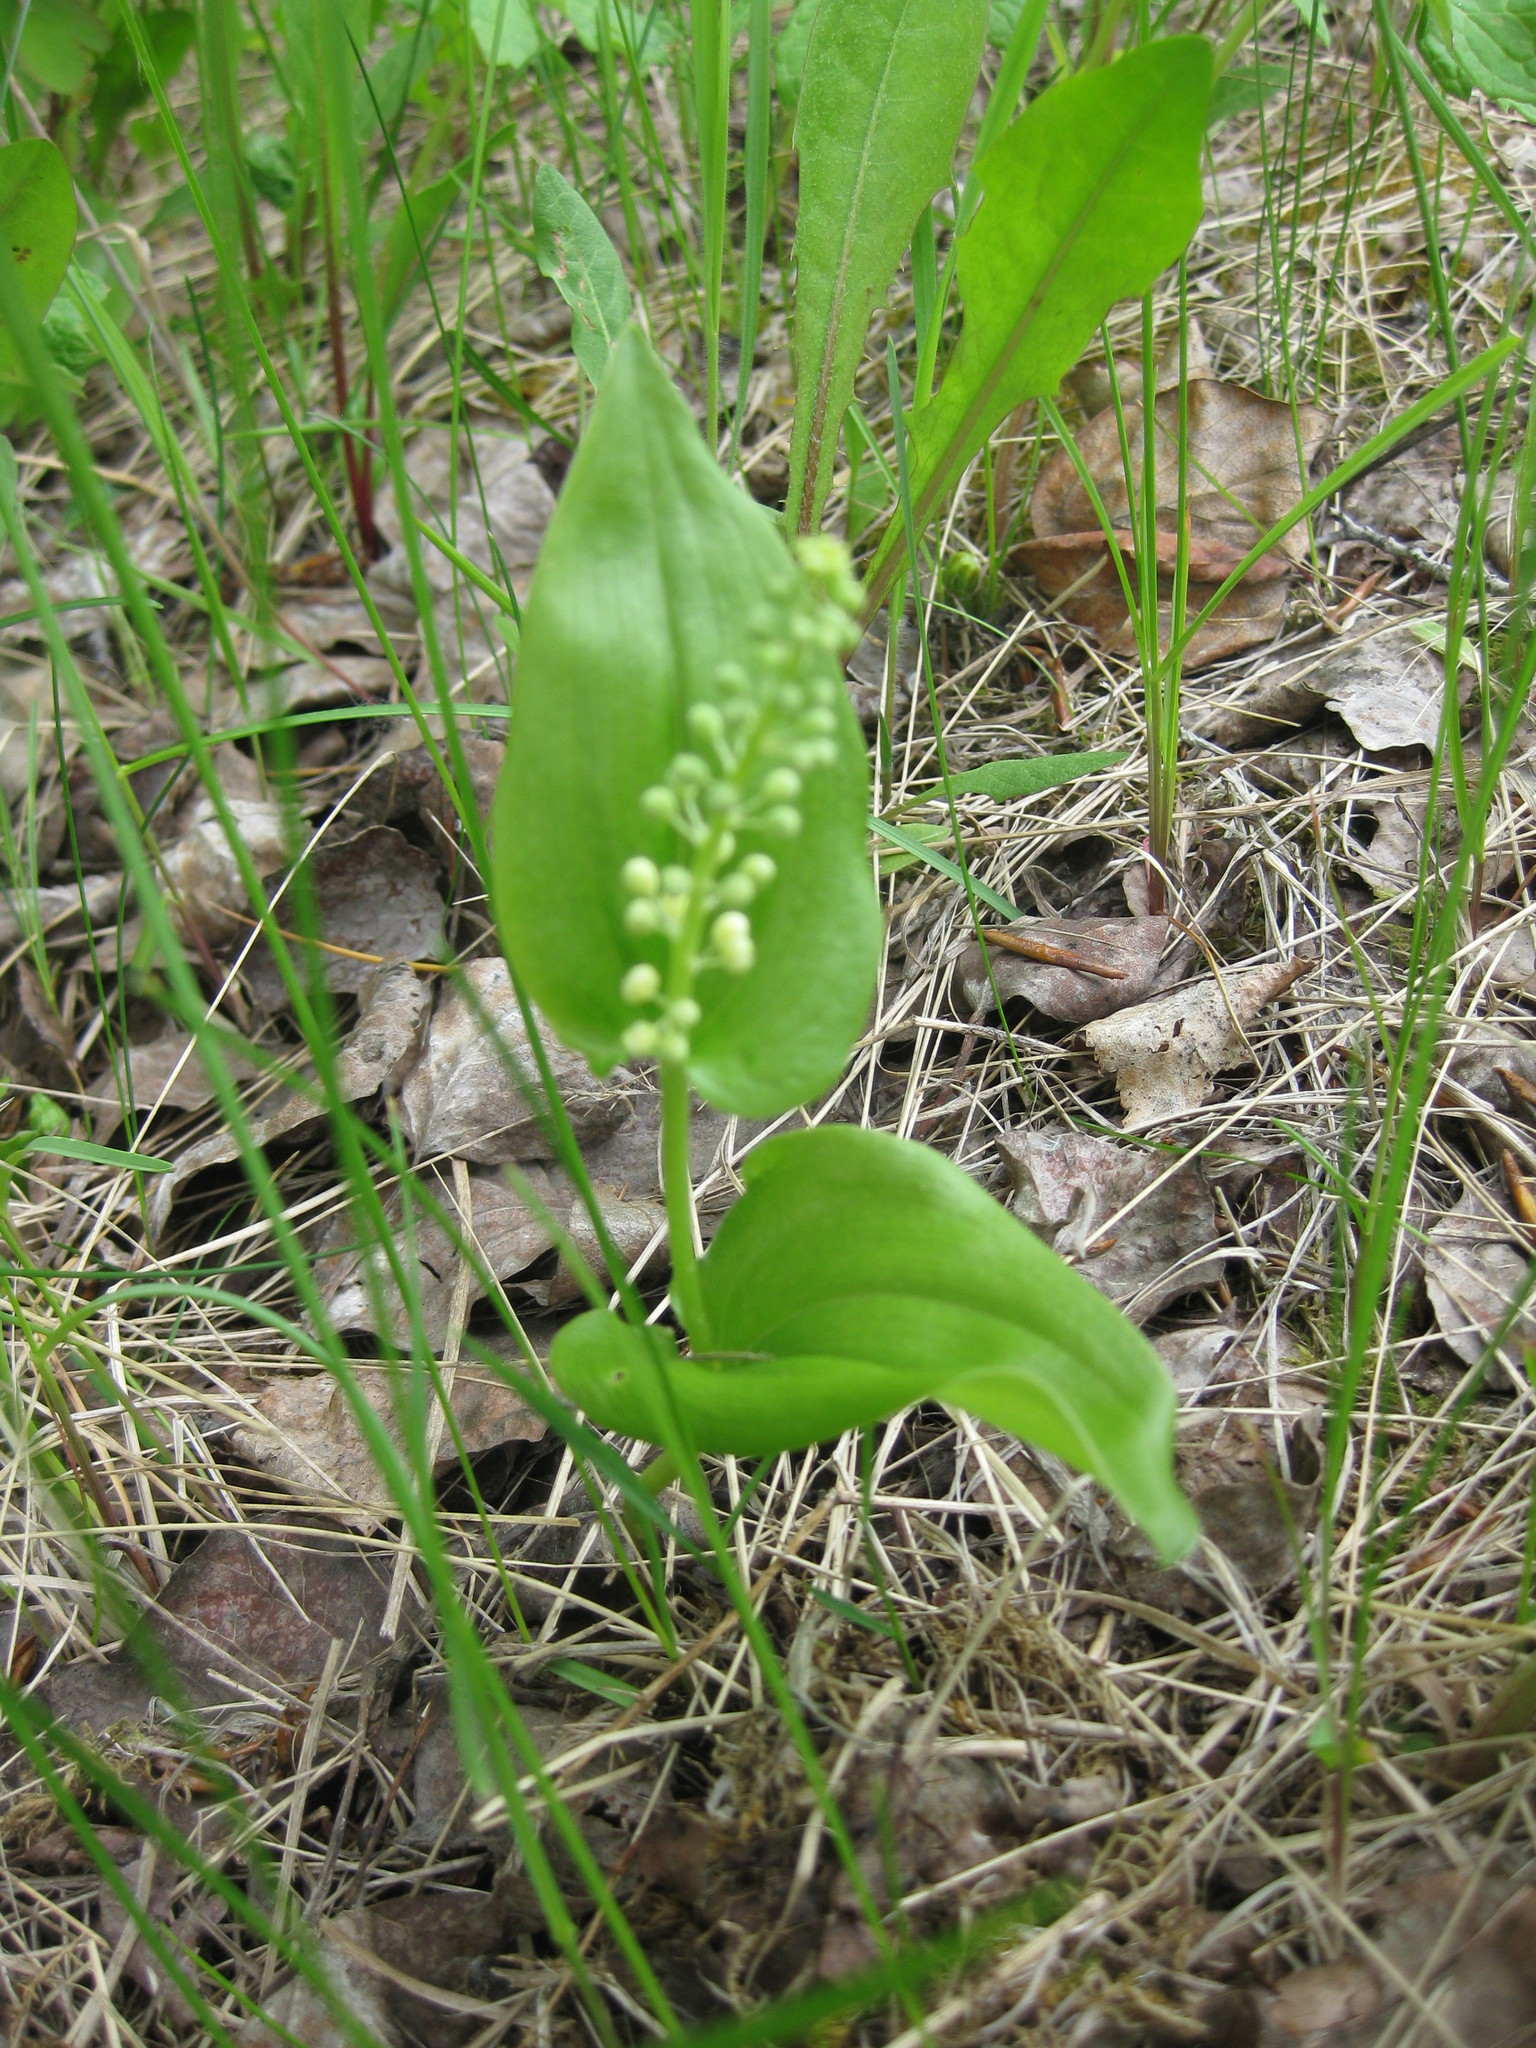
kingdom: Plantae
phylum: Tracheophyta
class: Liliopsida
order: Asparagales
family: Asparagaceae
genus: Maianthemum
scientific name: Maianthemum canadense
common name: False lily-of-the-valley
